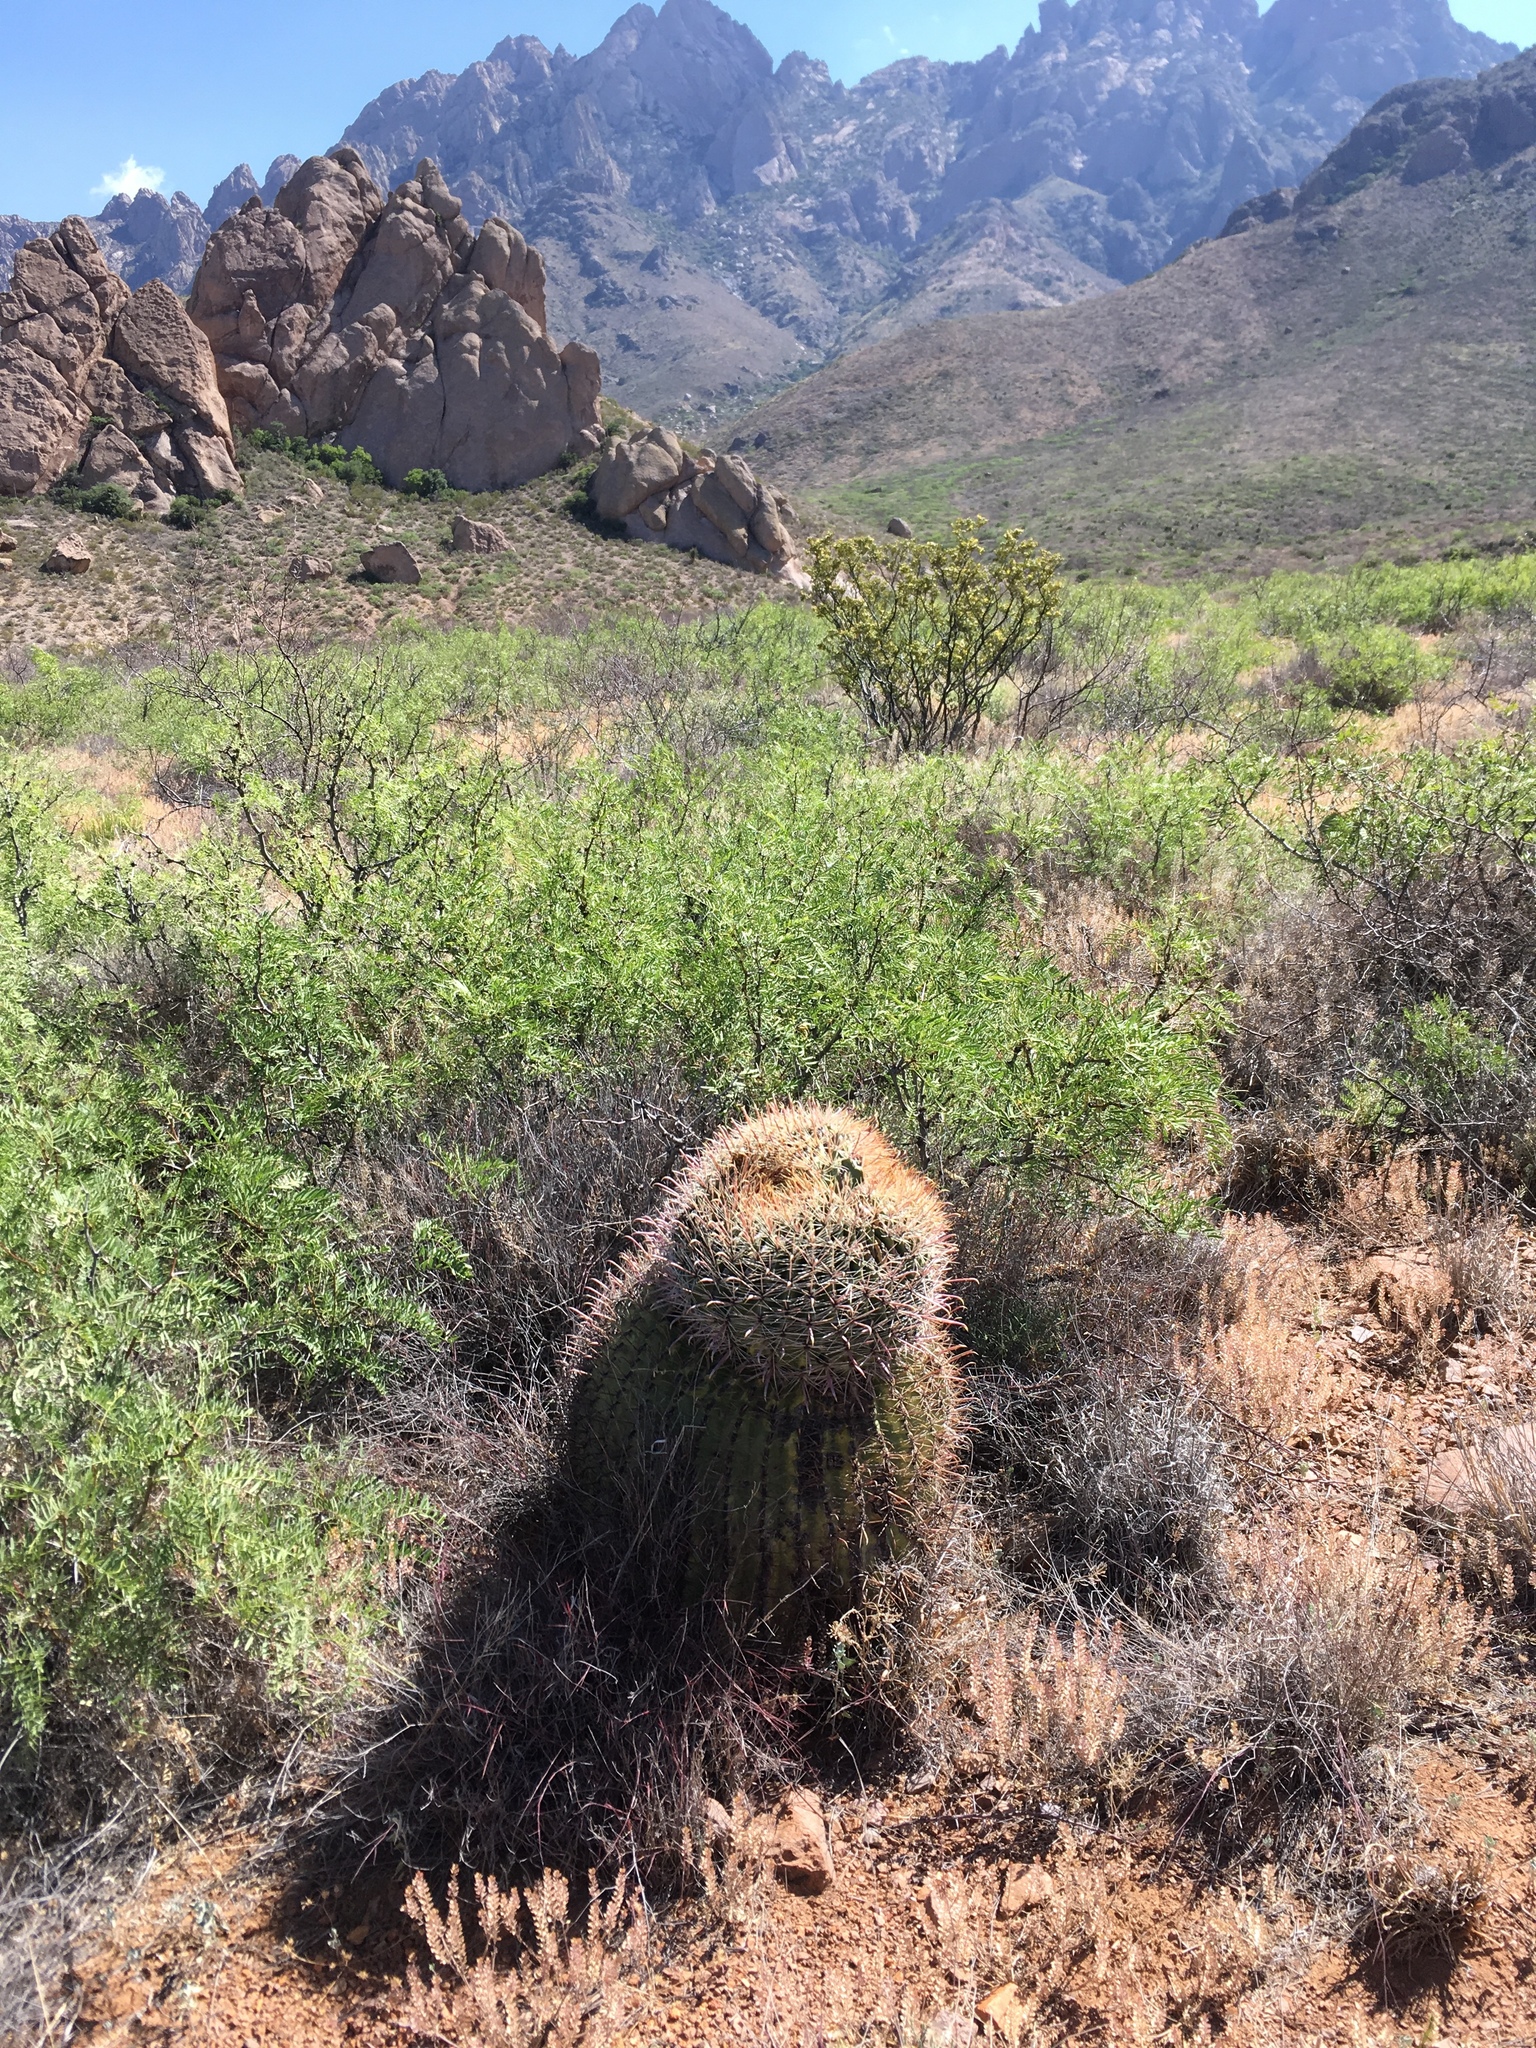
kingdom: Plantae
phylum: Tracheophyta
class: Magnoliopsida
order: Caryophyllales
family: Cactaceae
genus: Ferocactus
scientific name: Ferocactus wislizeni
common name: Candy barrel cactus
